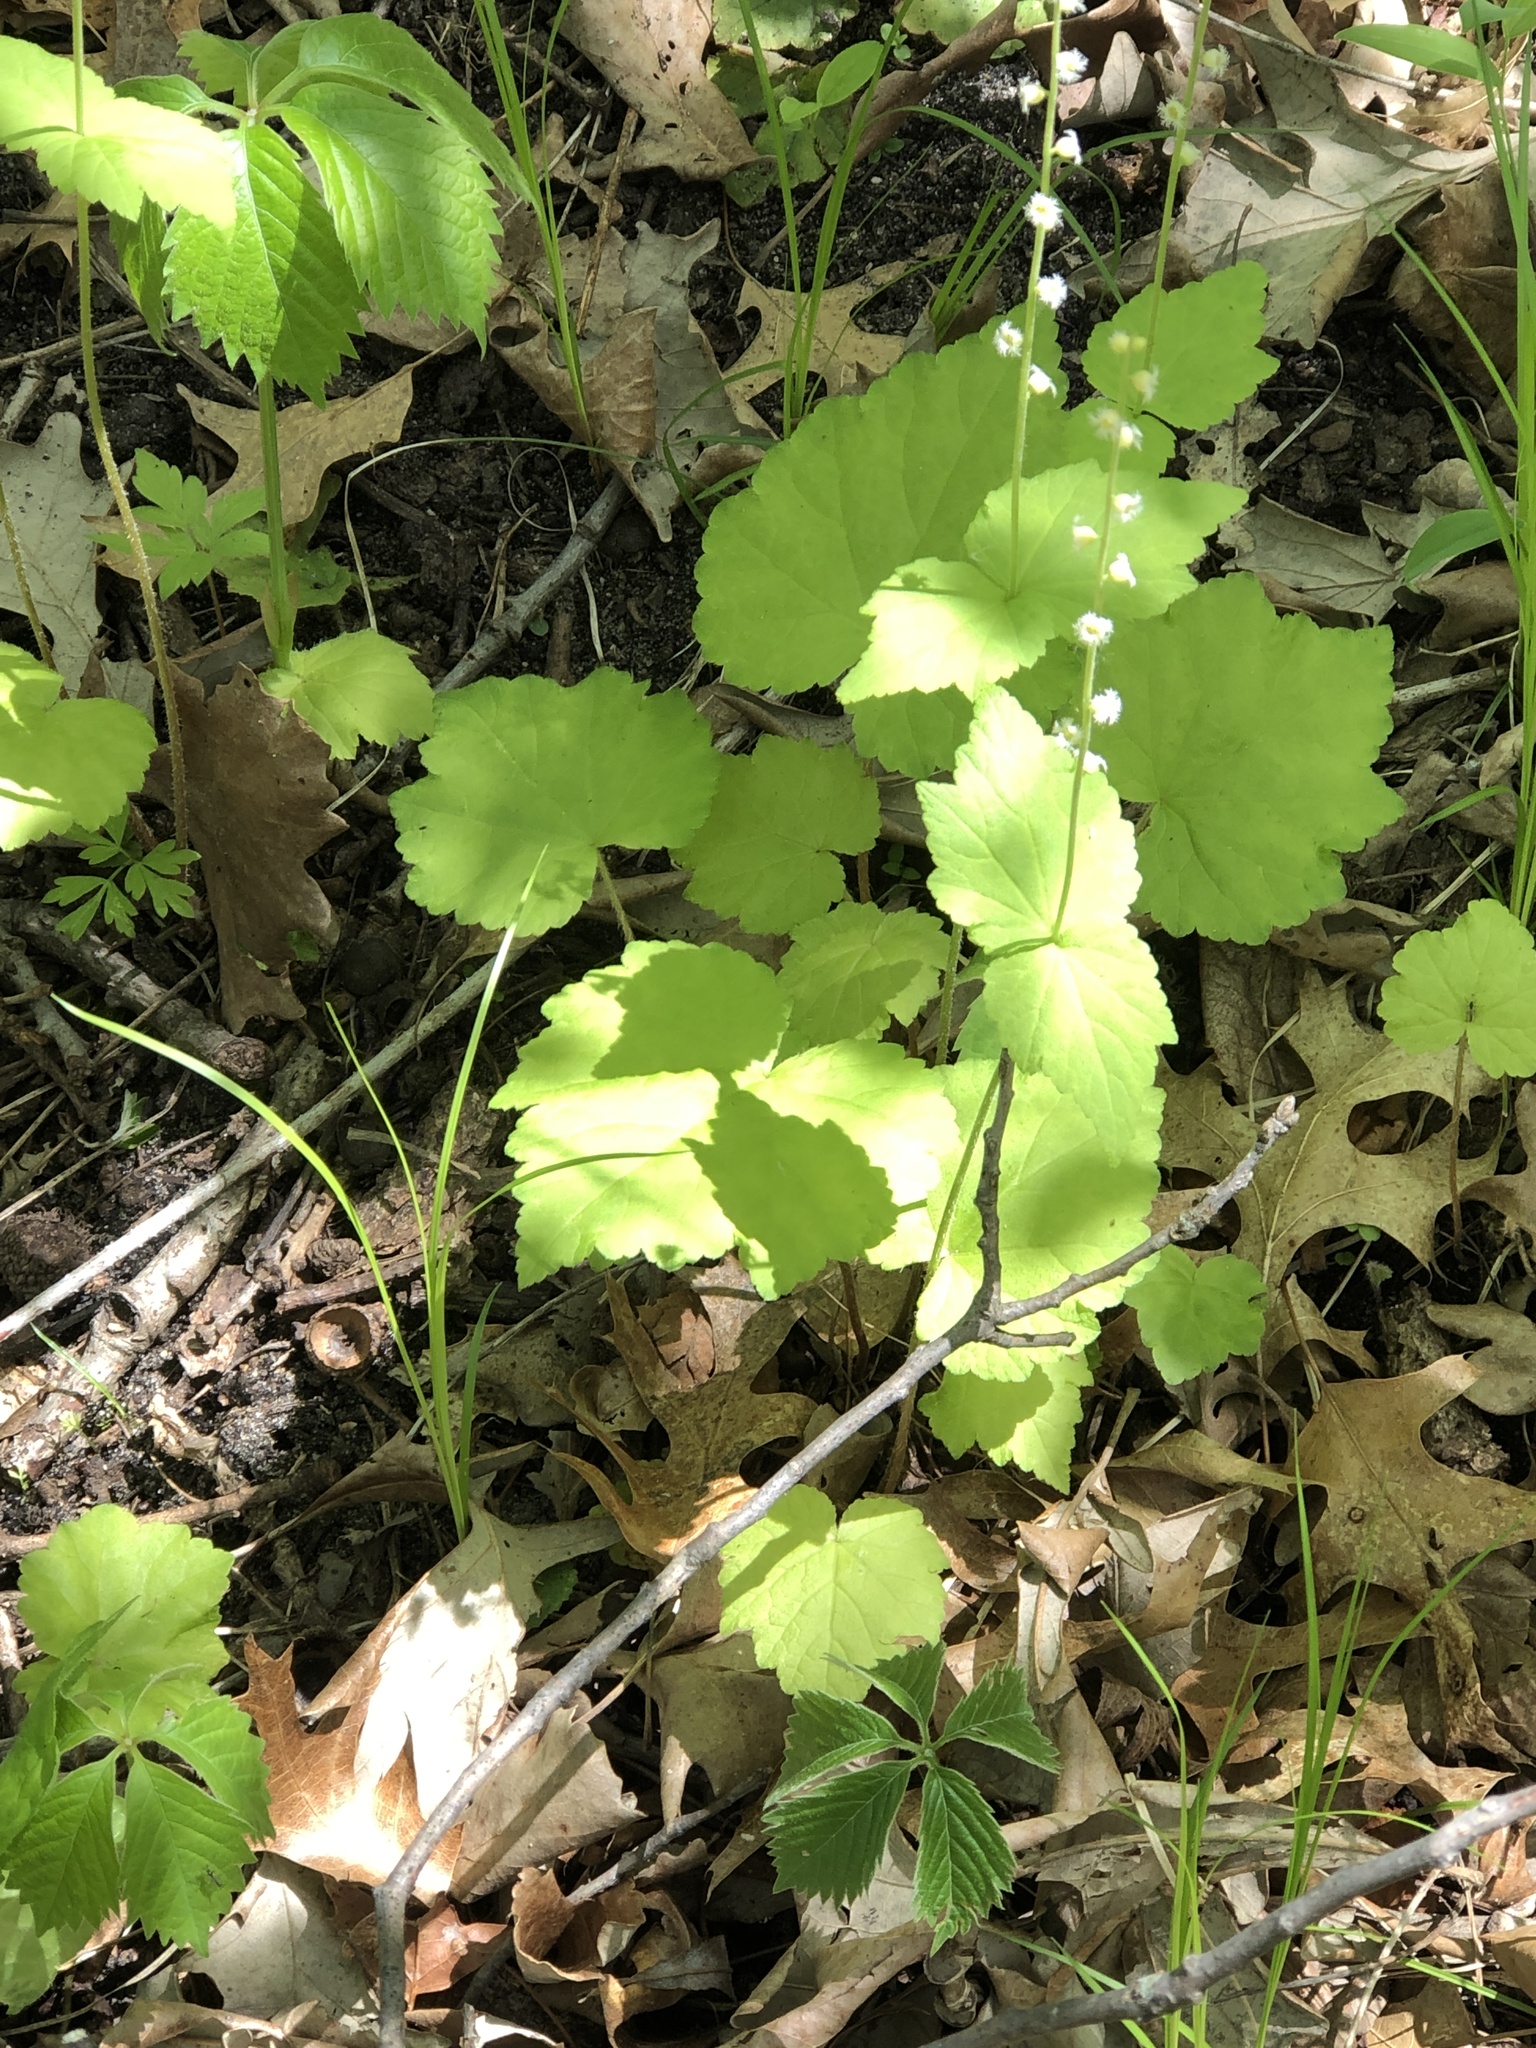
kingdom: Plantae
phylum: Tracheophyta
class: Magnoliopsida
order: Saxifragales
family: Saxifragaceae
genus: Mitella
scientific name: Mitella diphylla
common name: Coolwort
